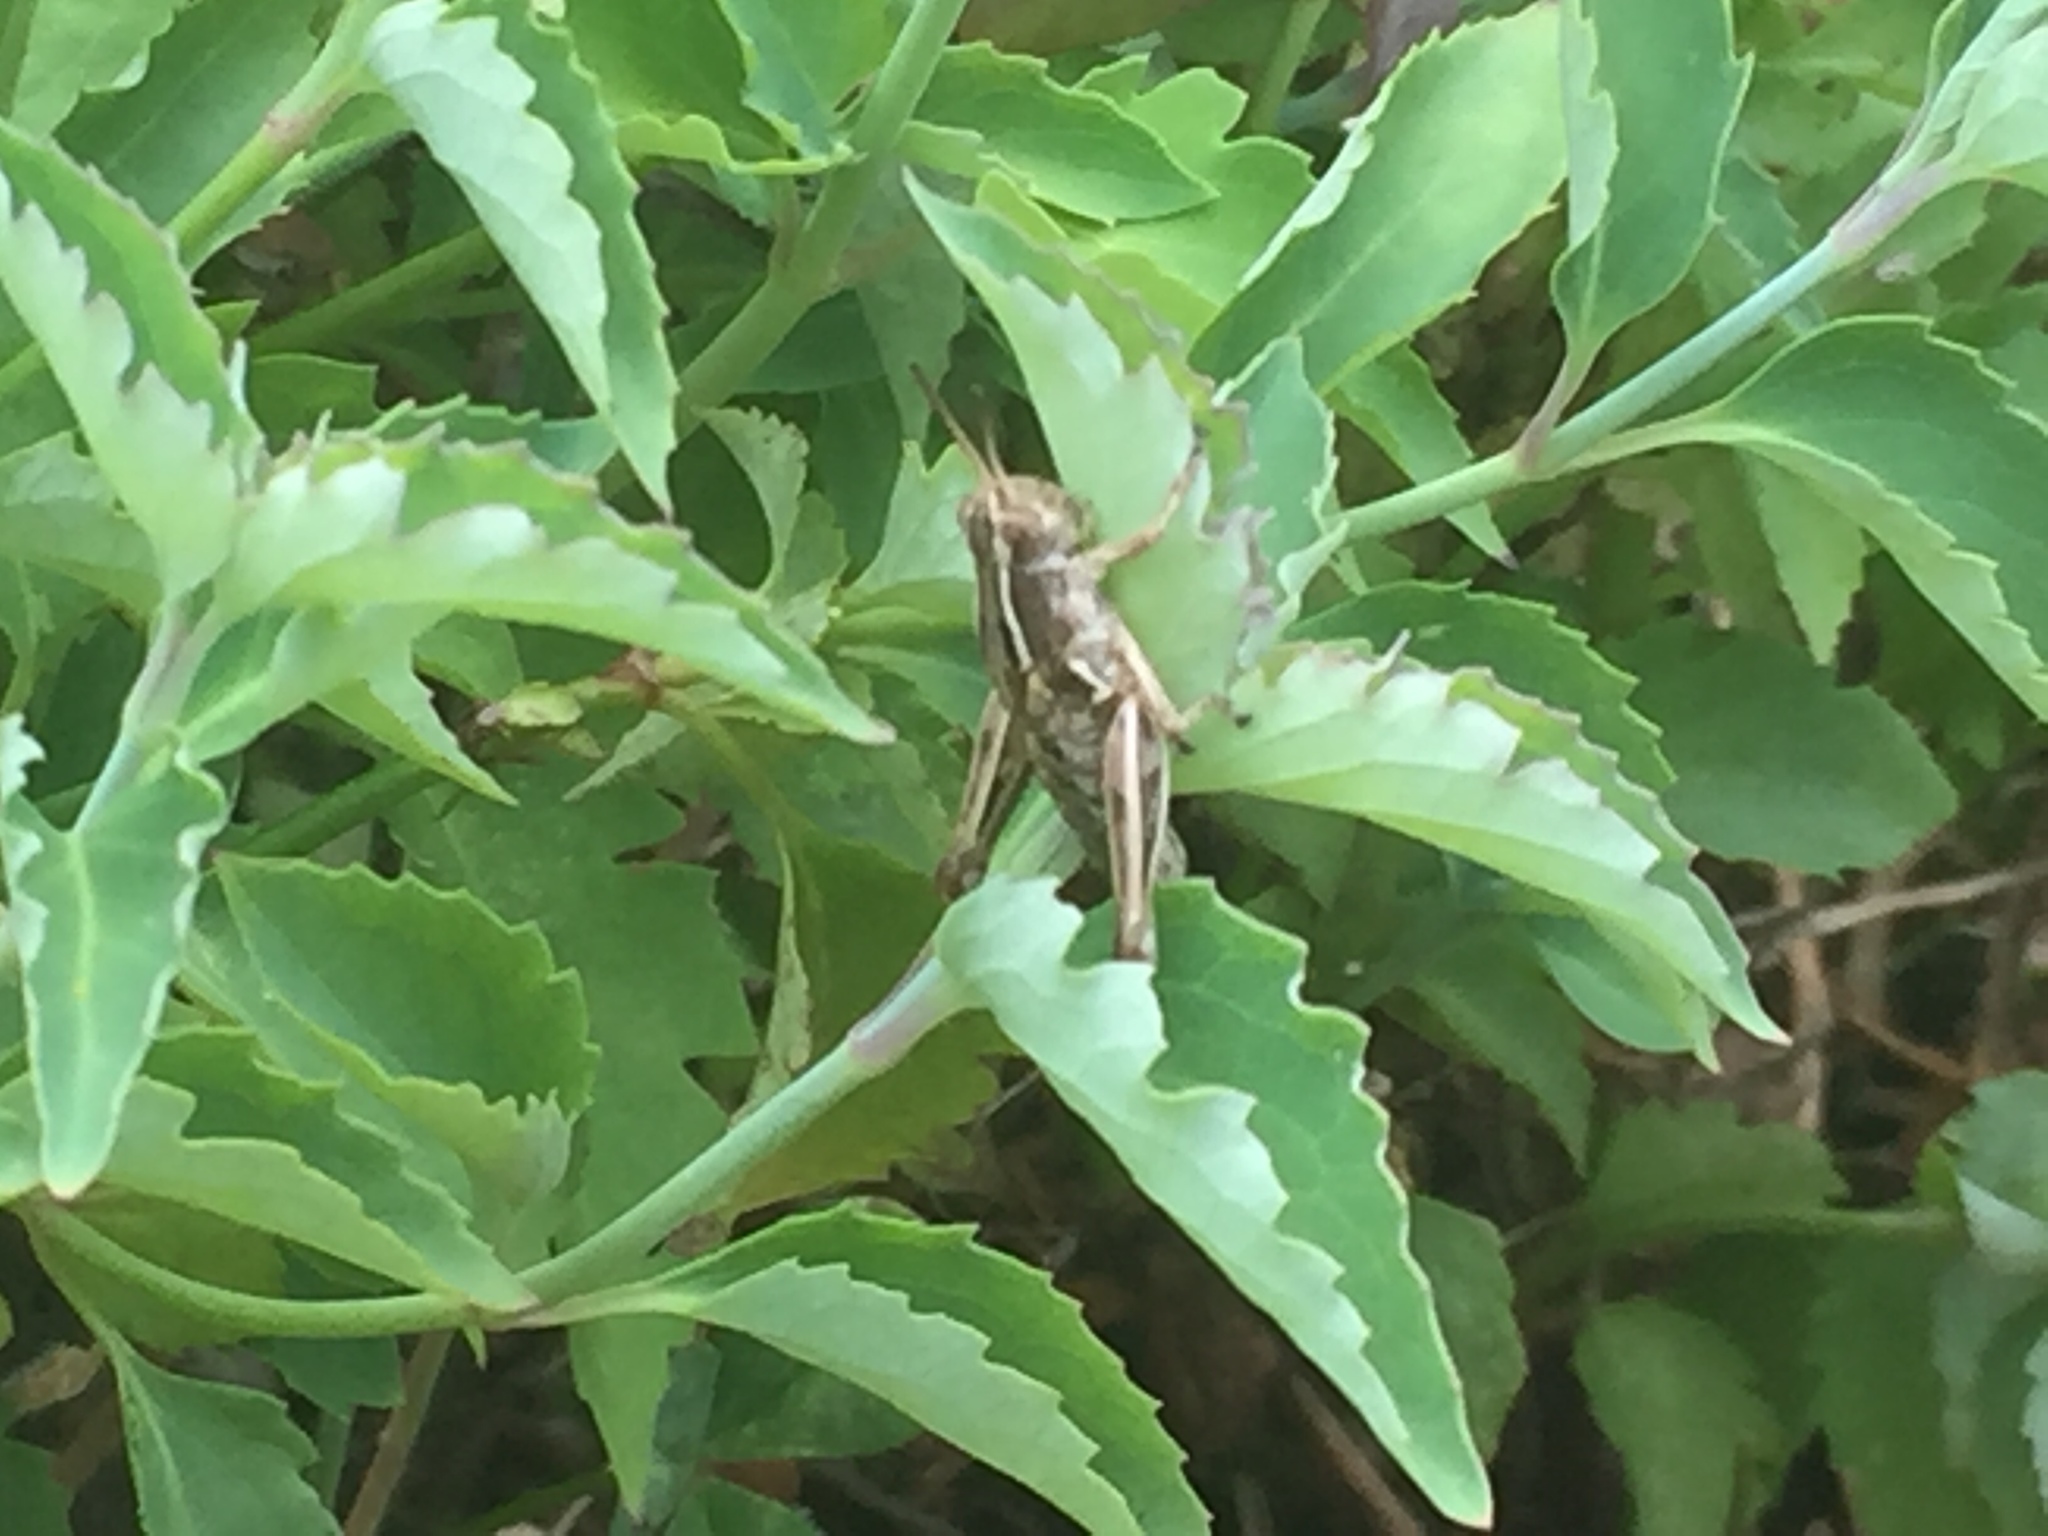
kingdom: Animalia
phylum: Arthropoda
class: Insecta
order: Orthoptera
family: Acrididae
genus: Phaulacridium
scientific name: Phaulacridium marginale
